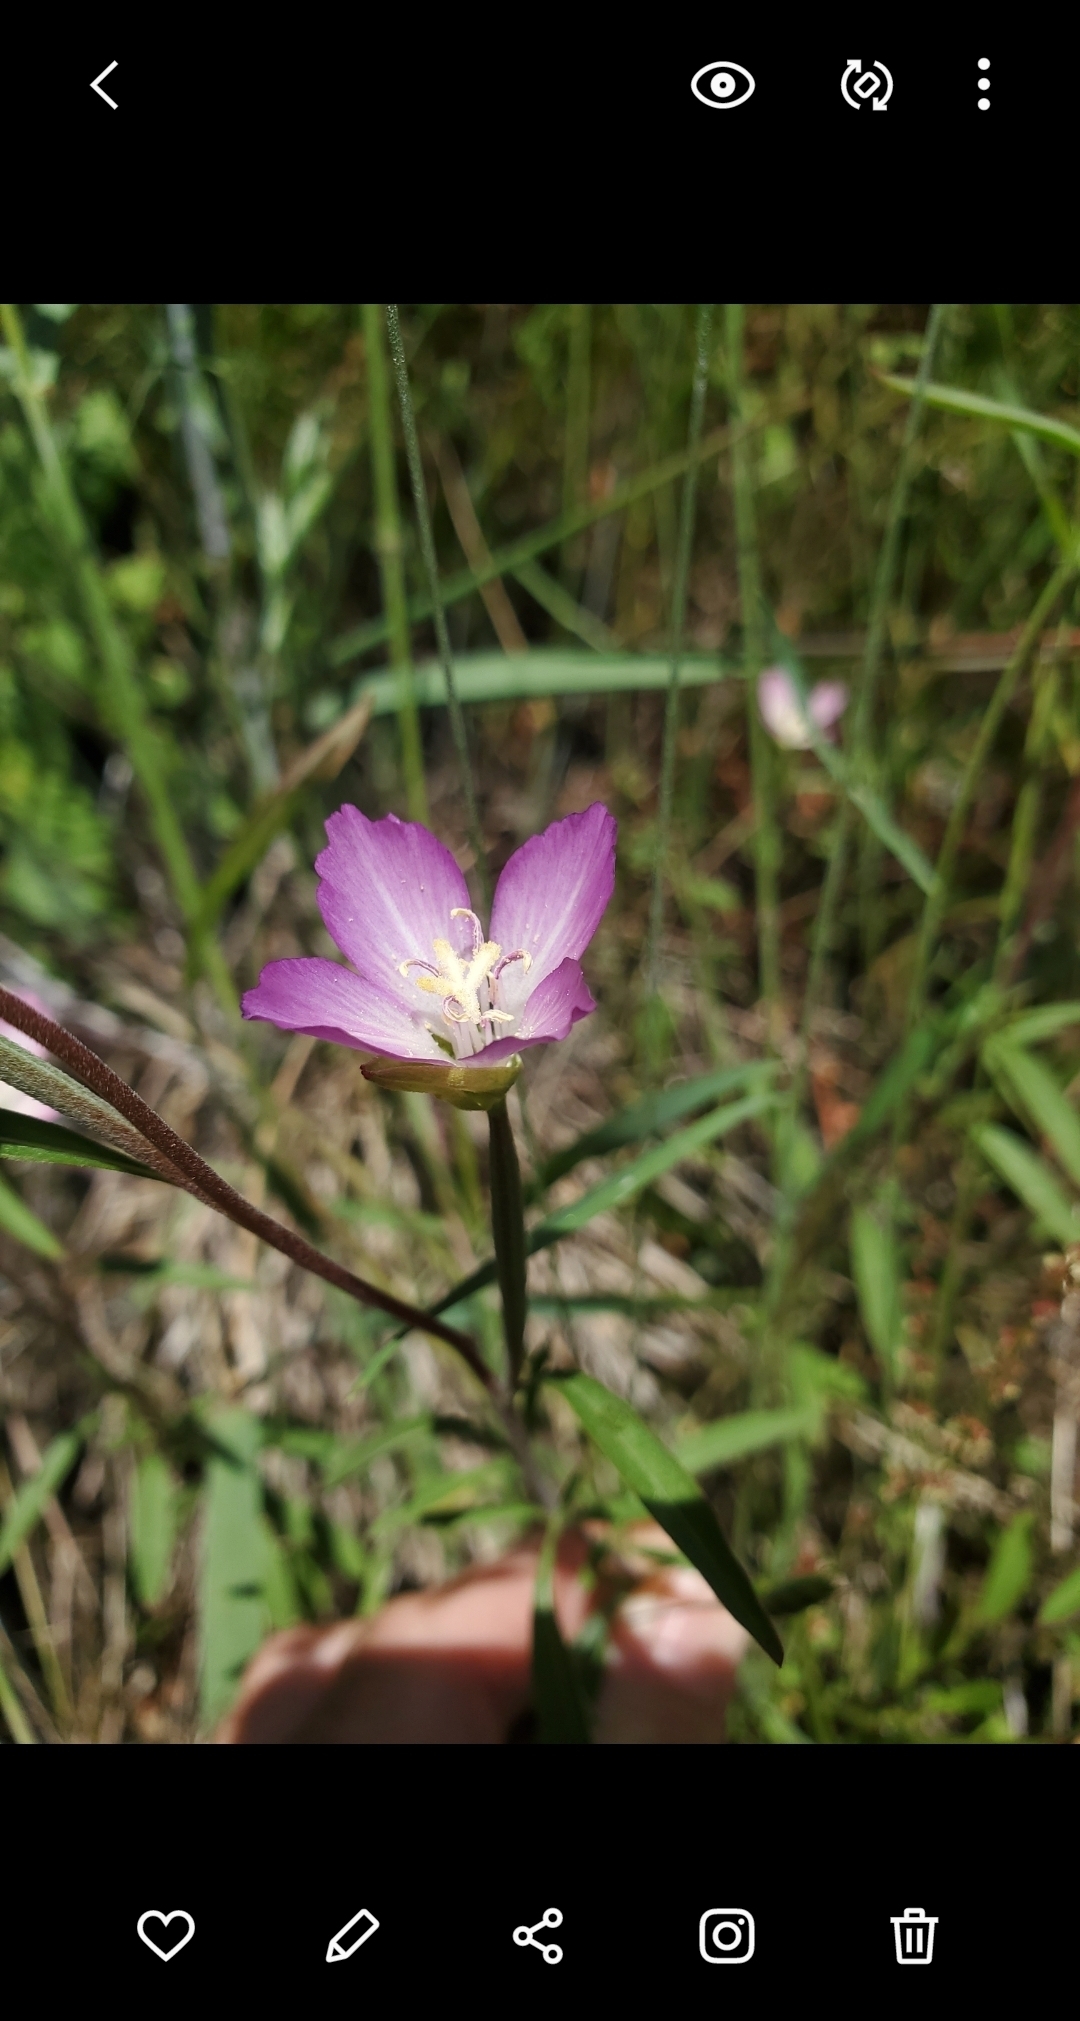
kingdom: Plantae
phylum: Tracheophyta
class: Magnoliopsida
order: Myrtales
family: Onagraceae
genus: Clarkia
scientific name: Clarkia amoena
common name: Godetia
